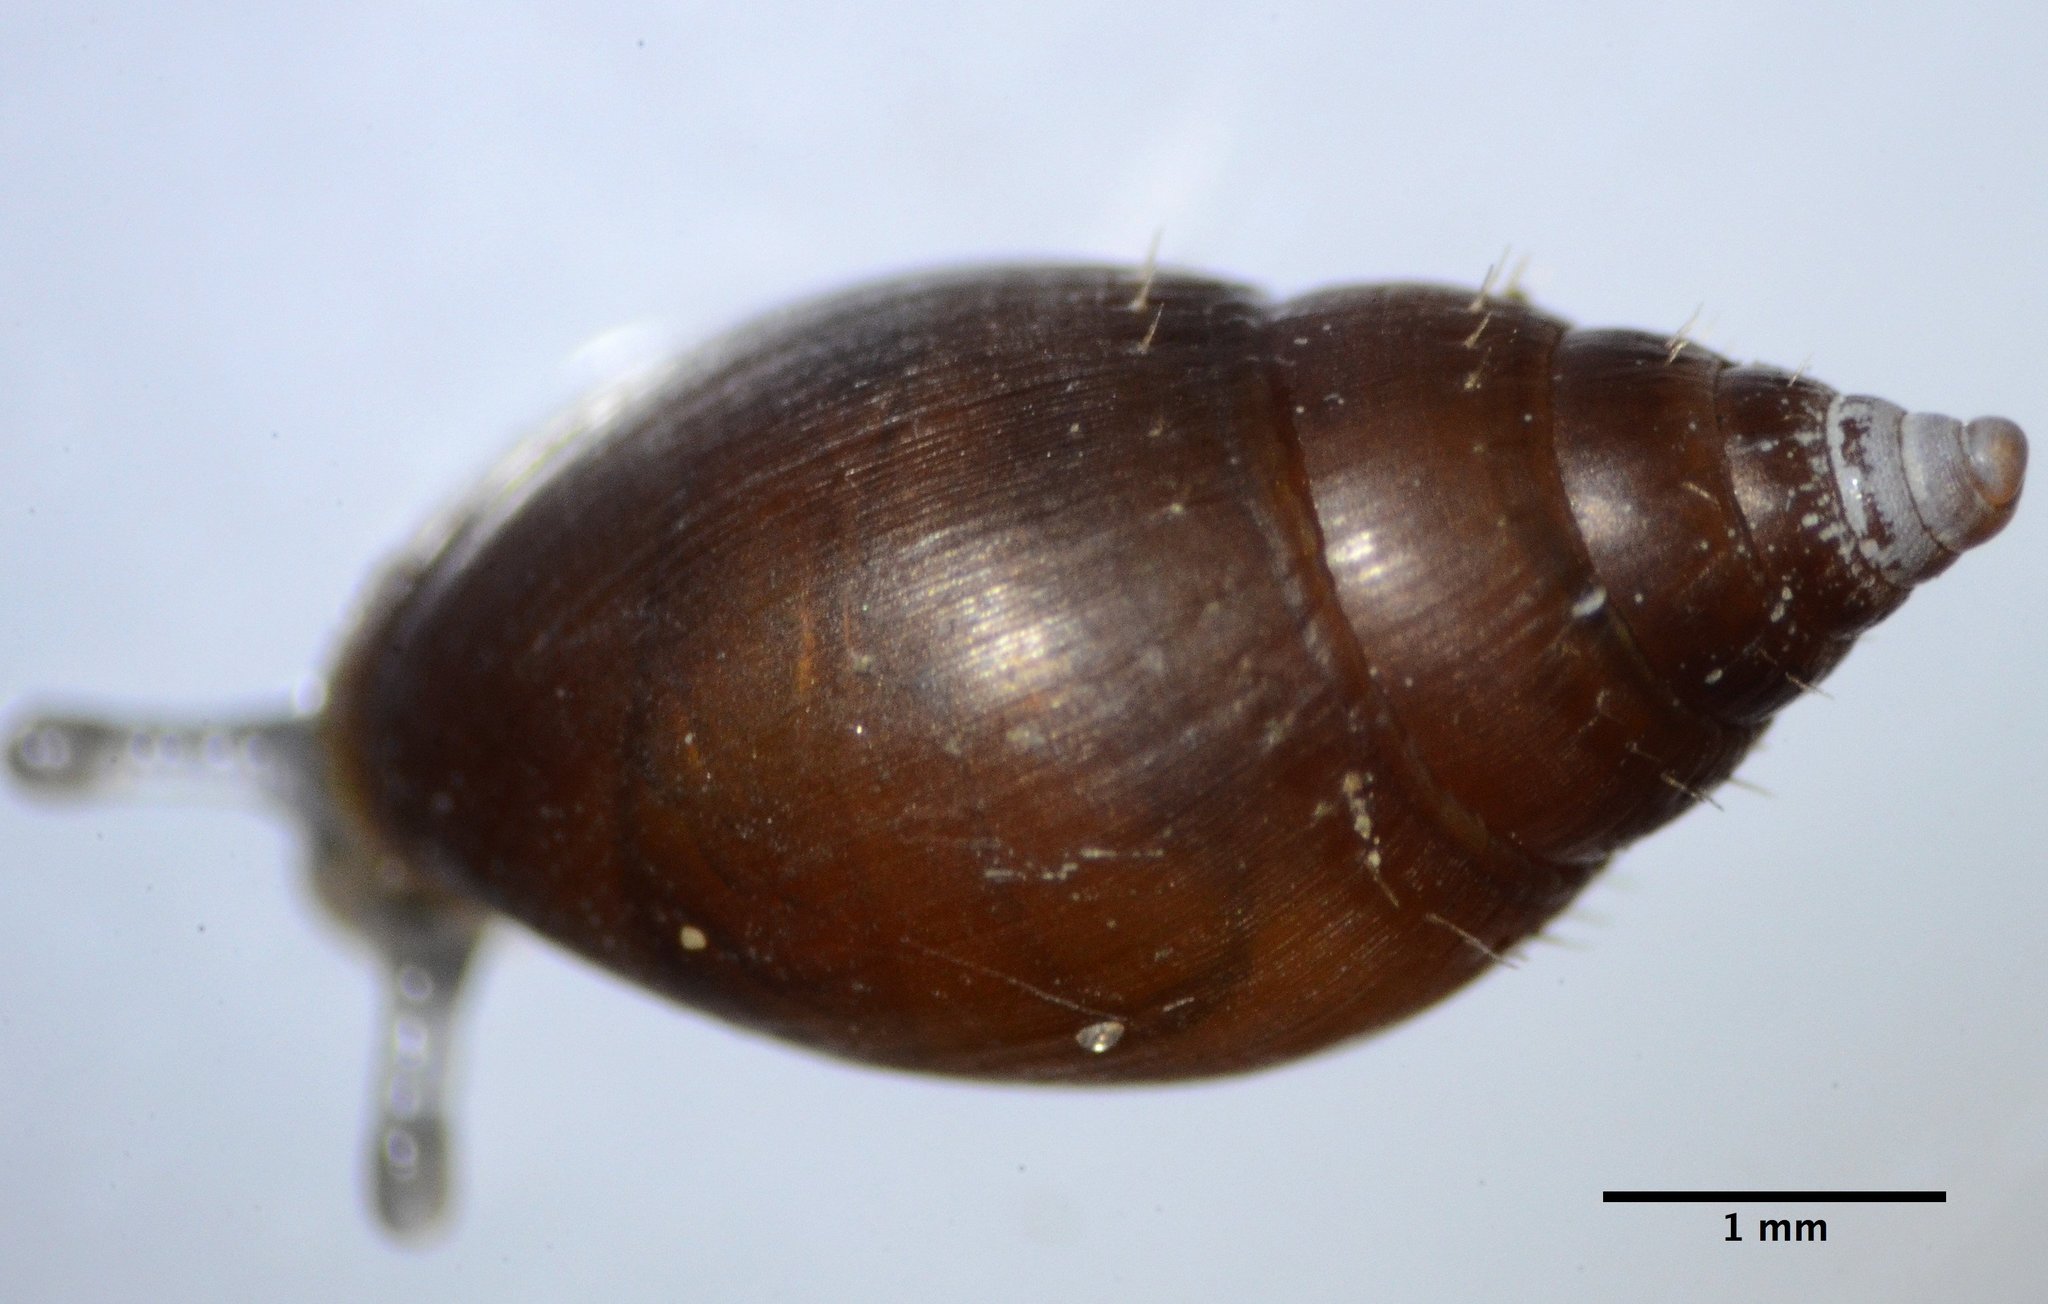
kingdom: Animalia
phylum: Mollusca
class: Gastropoda
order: Ellobiida
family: Ellobiidae
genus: Myosotella
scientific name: Myosotella myosotis
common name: Mouse-eared snail
